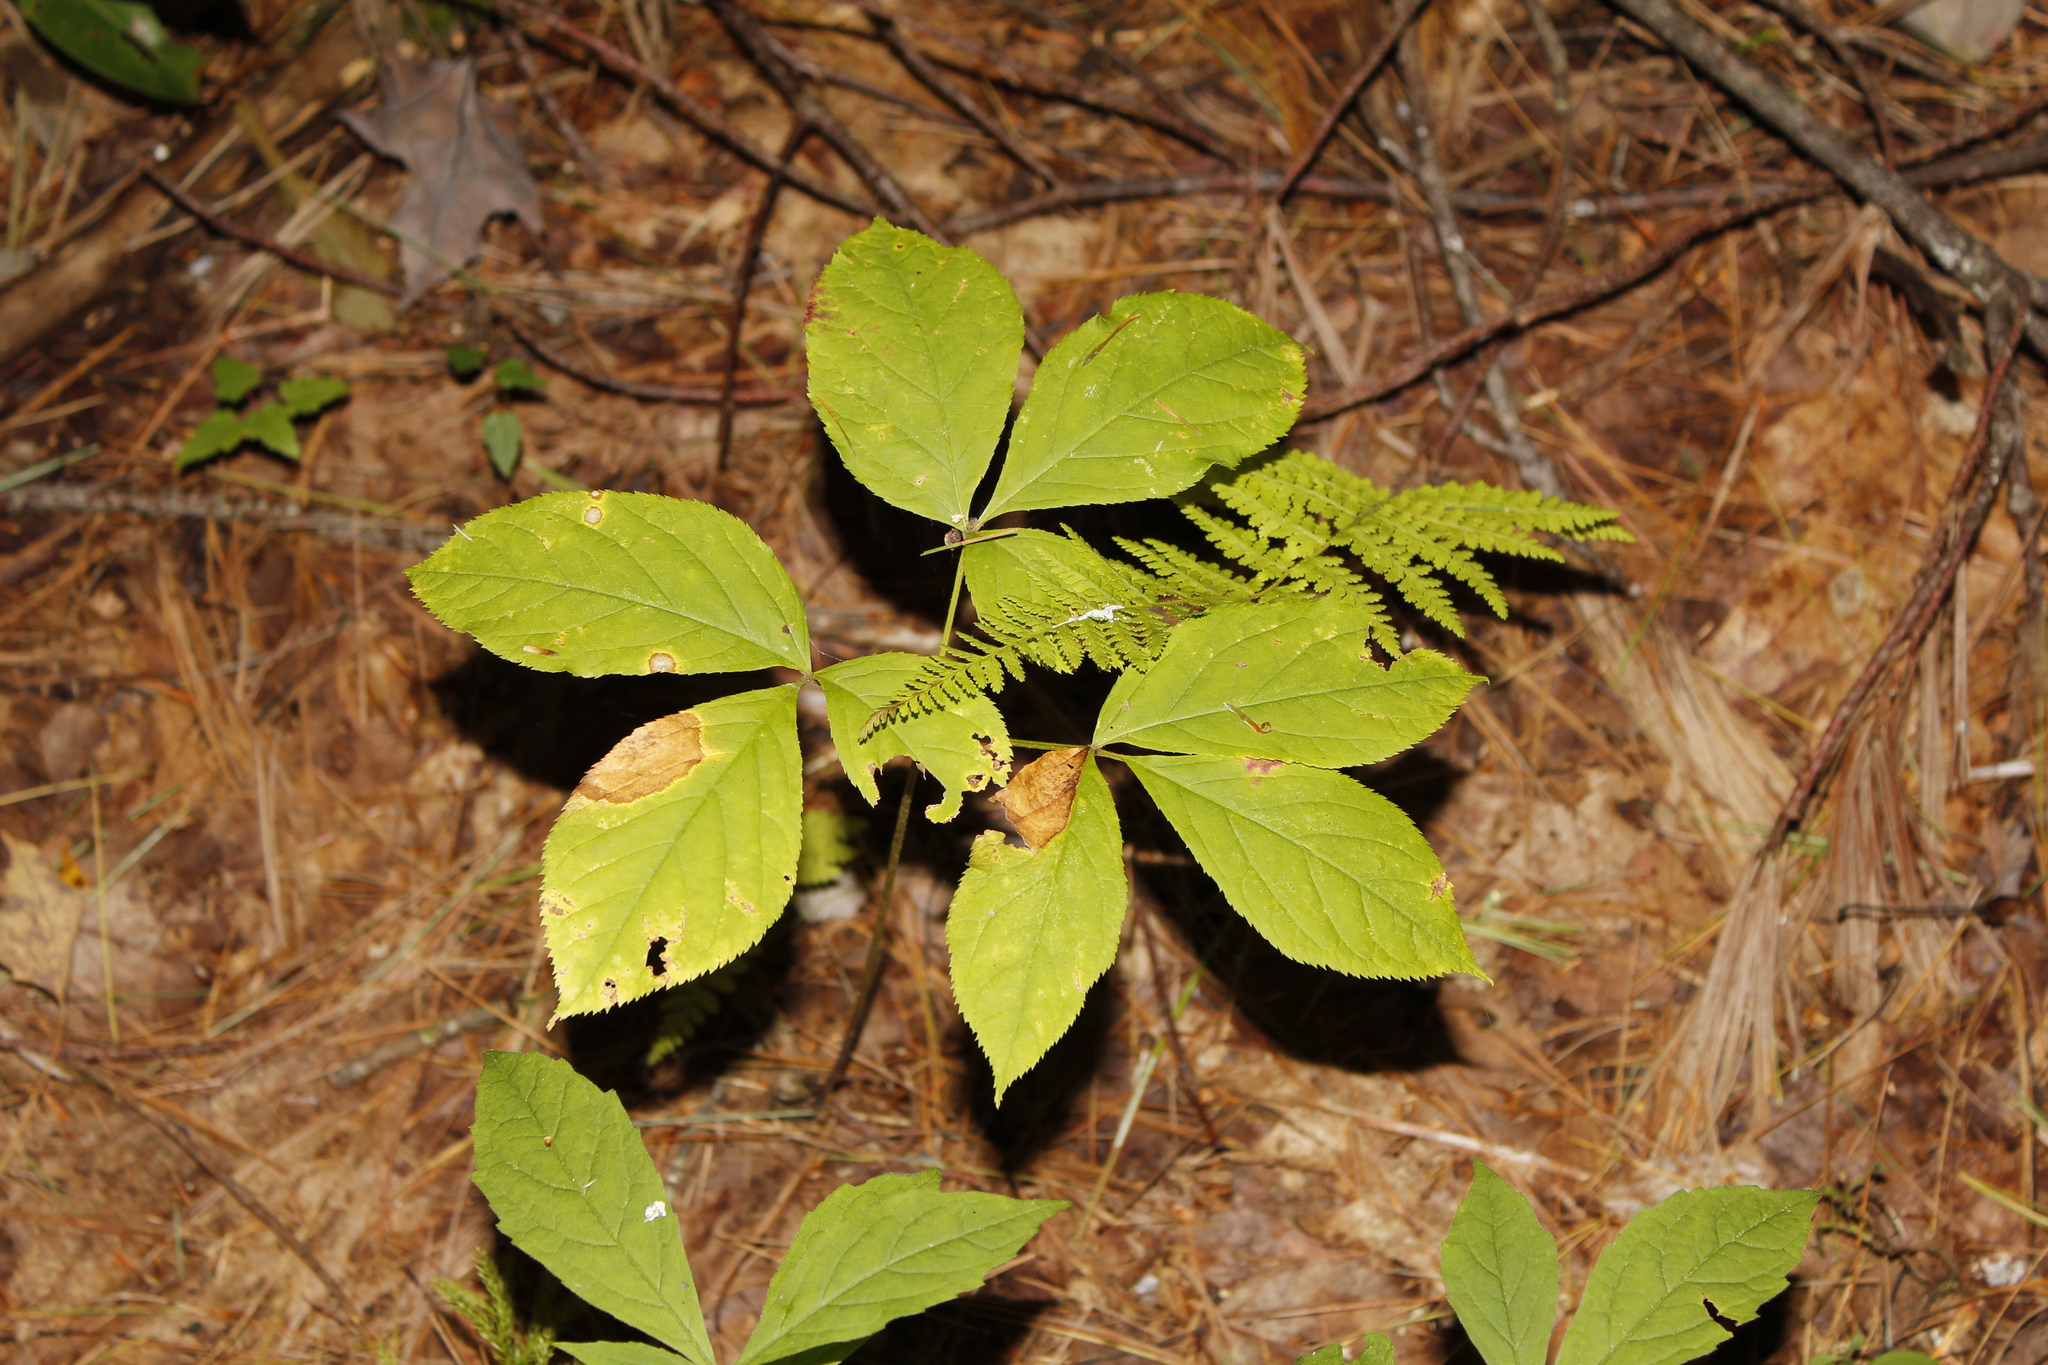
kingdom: Plantae
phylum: Tracheophyta
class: Magnoliopsida
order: Apiales
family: Araliaceae
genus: Aralia
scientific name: Aralia nudicaulis
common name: Wild sarsaparilla
